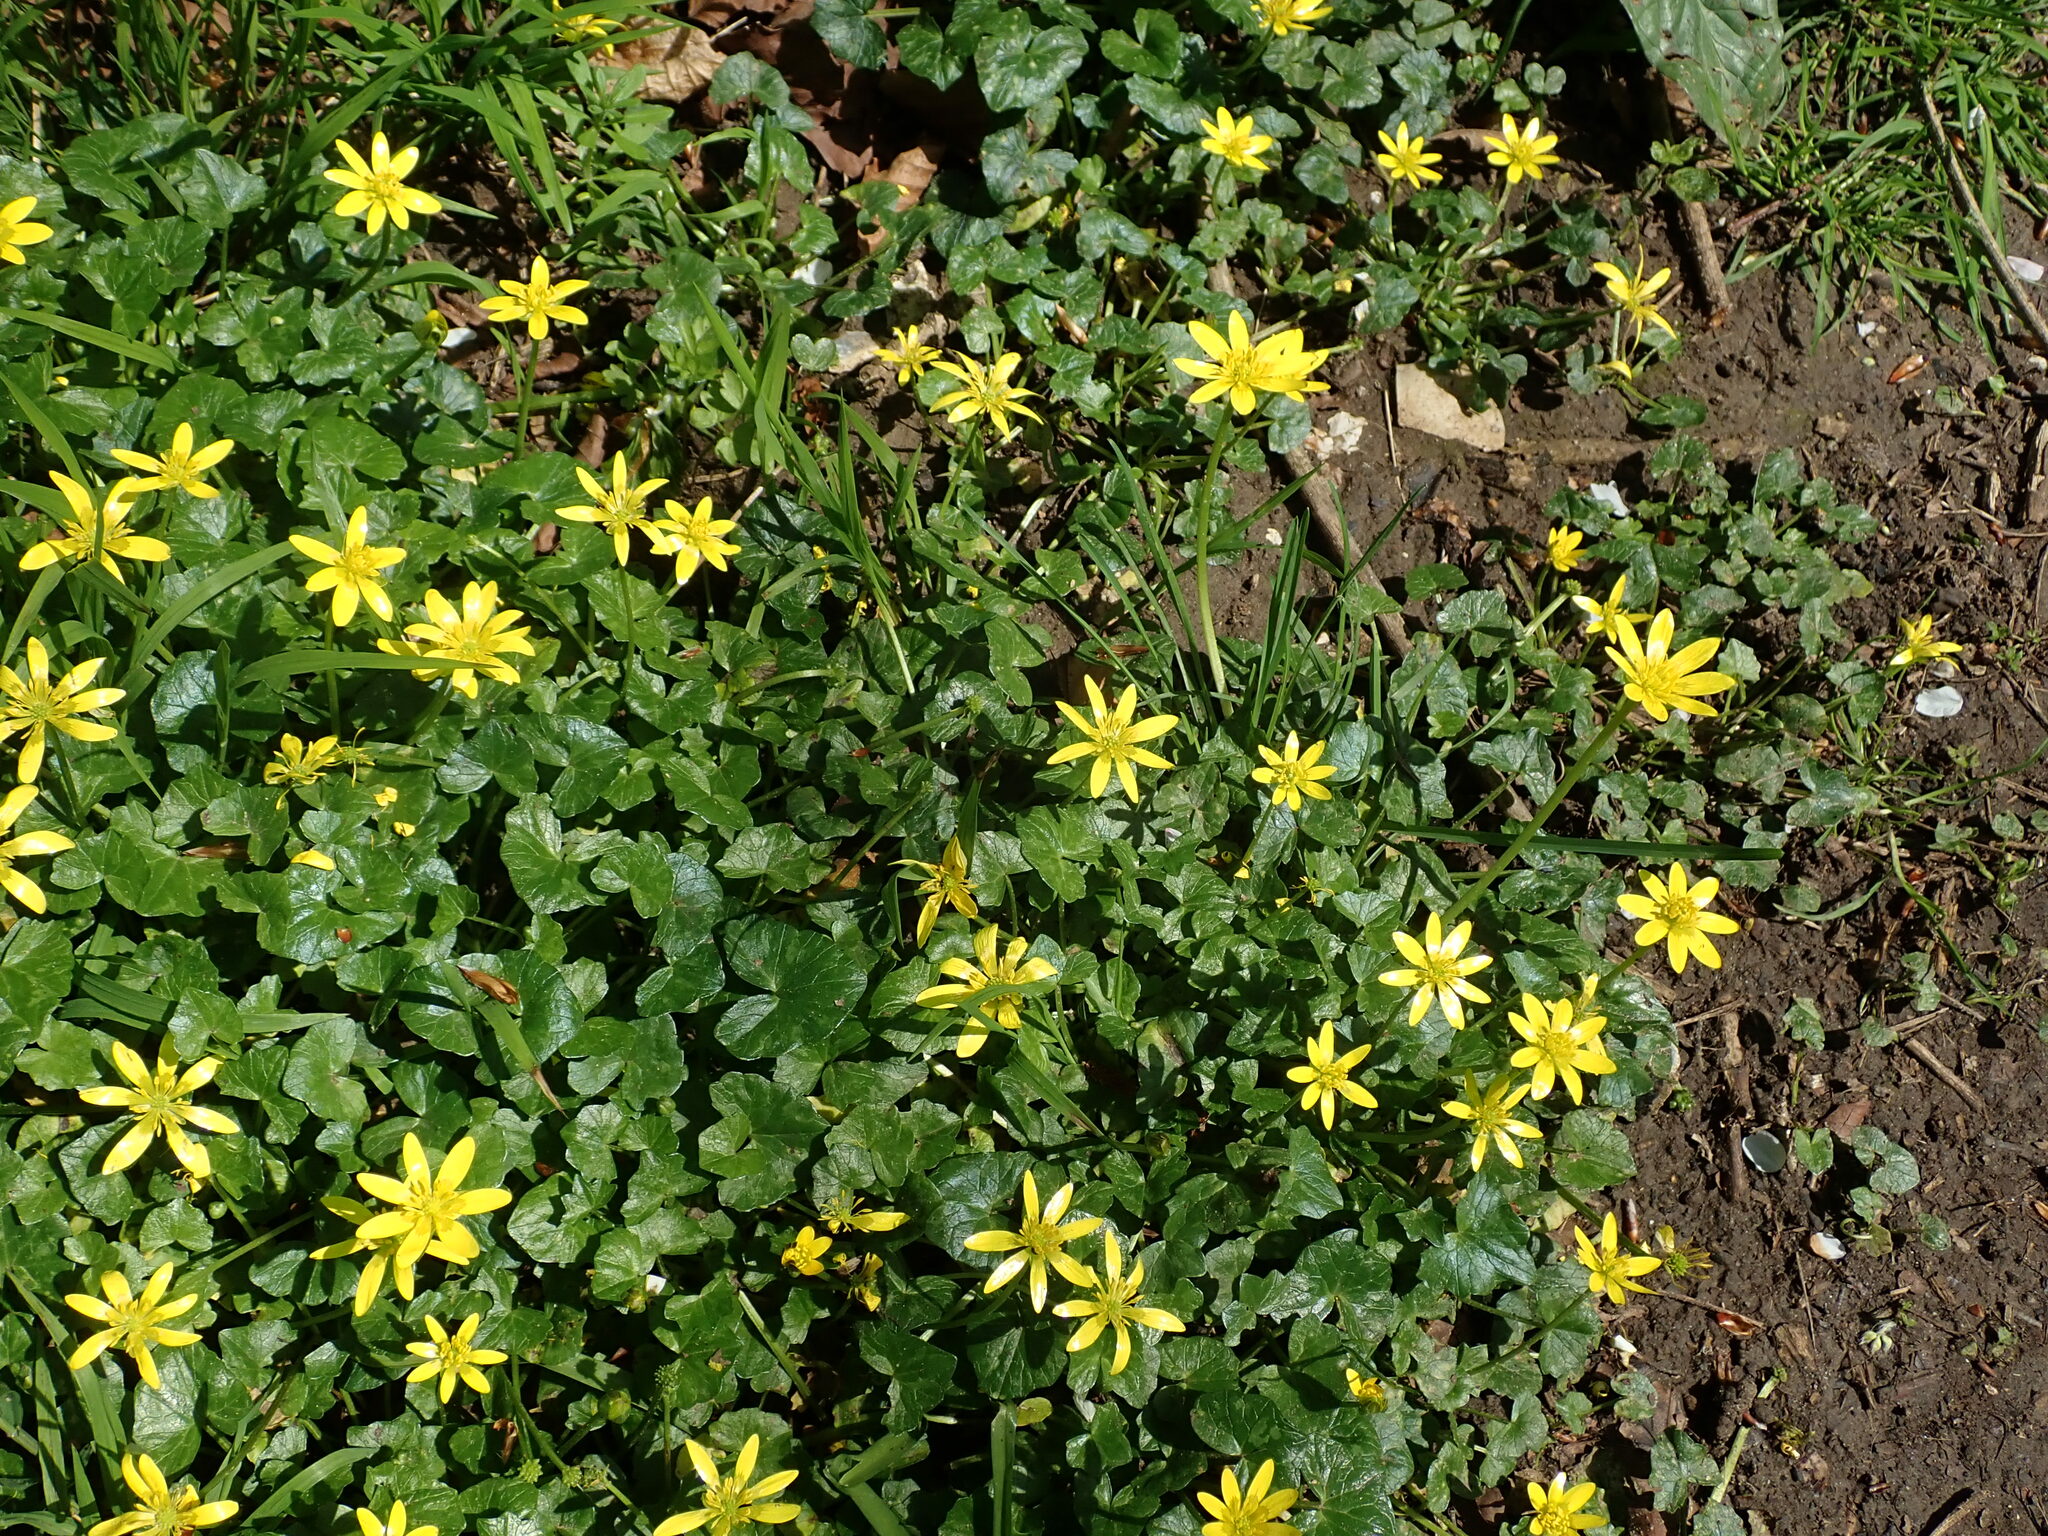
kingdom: Plantae
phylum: Tracheophyta
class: Magnoliopsida
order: Ranunculales
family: Ranunculaceae
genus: Ficaria
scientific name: Ficaria verna
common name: Lesser celandine
